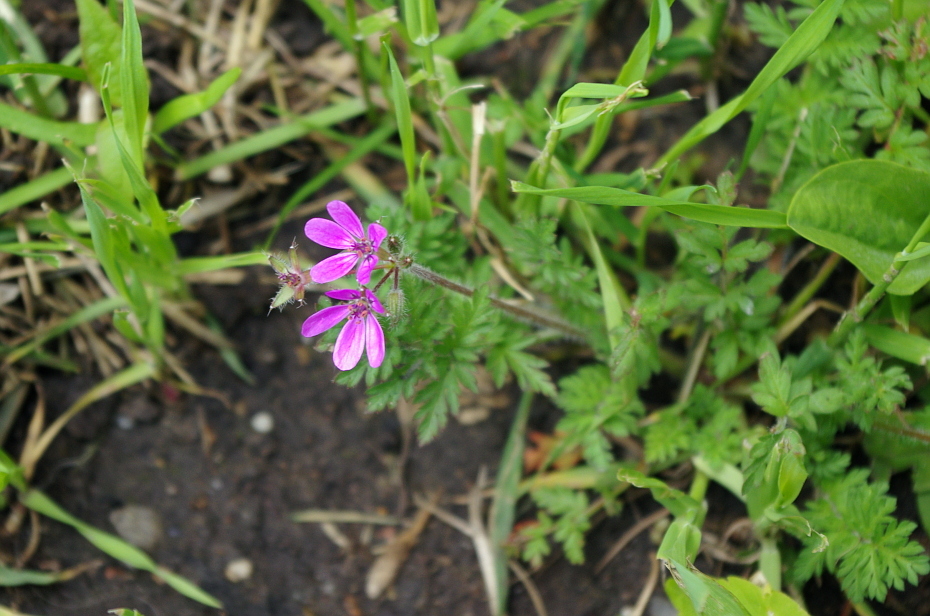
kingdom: Plantae
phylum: Tracheophyta
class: Magnoliopsida
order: Geraniales
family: Geraniaceae
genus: Erodium
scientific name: Erodium cicutarium
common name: Common stork's-bill
